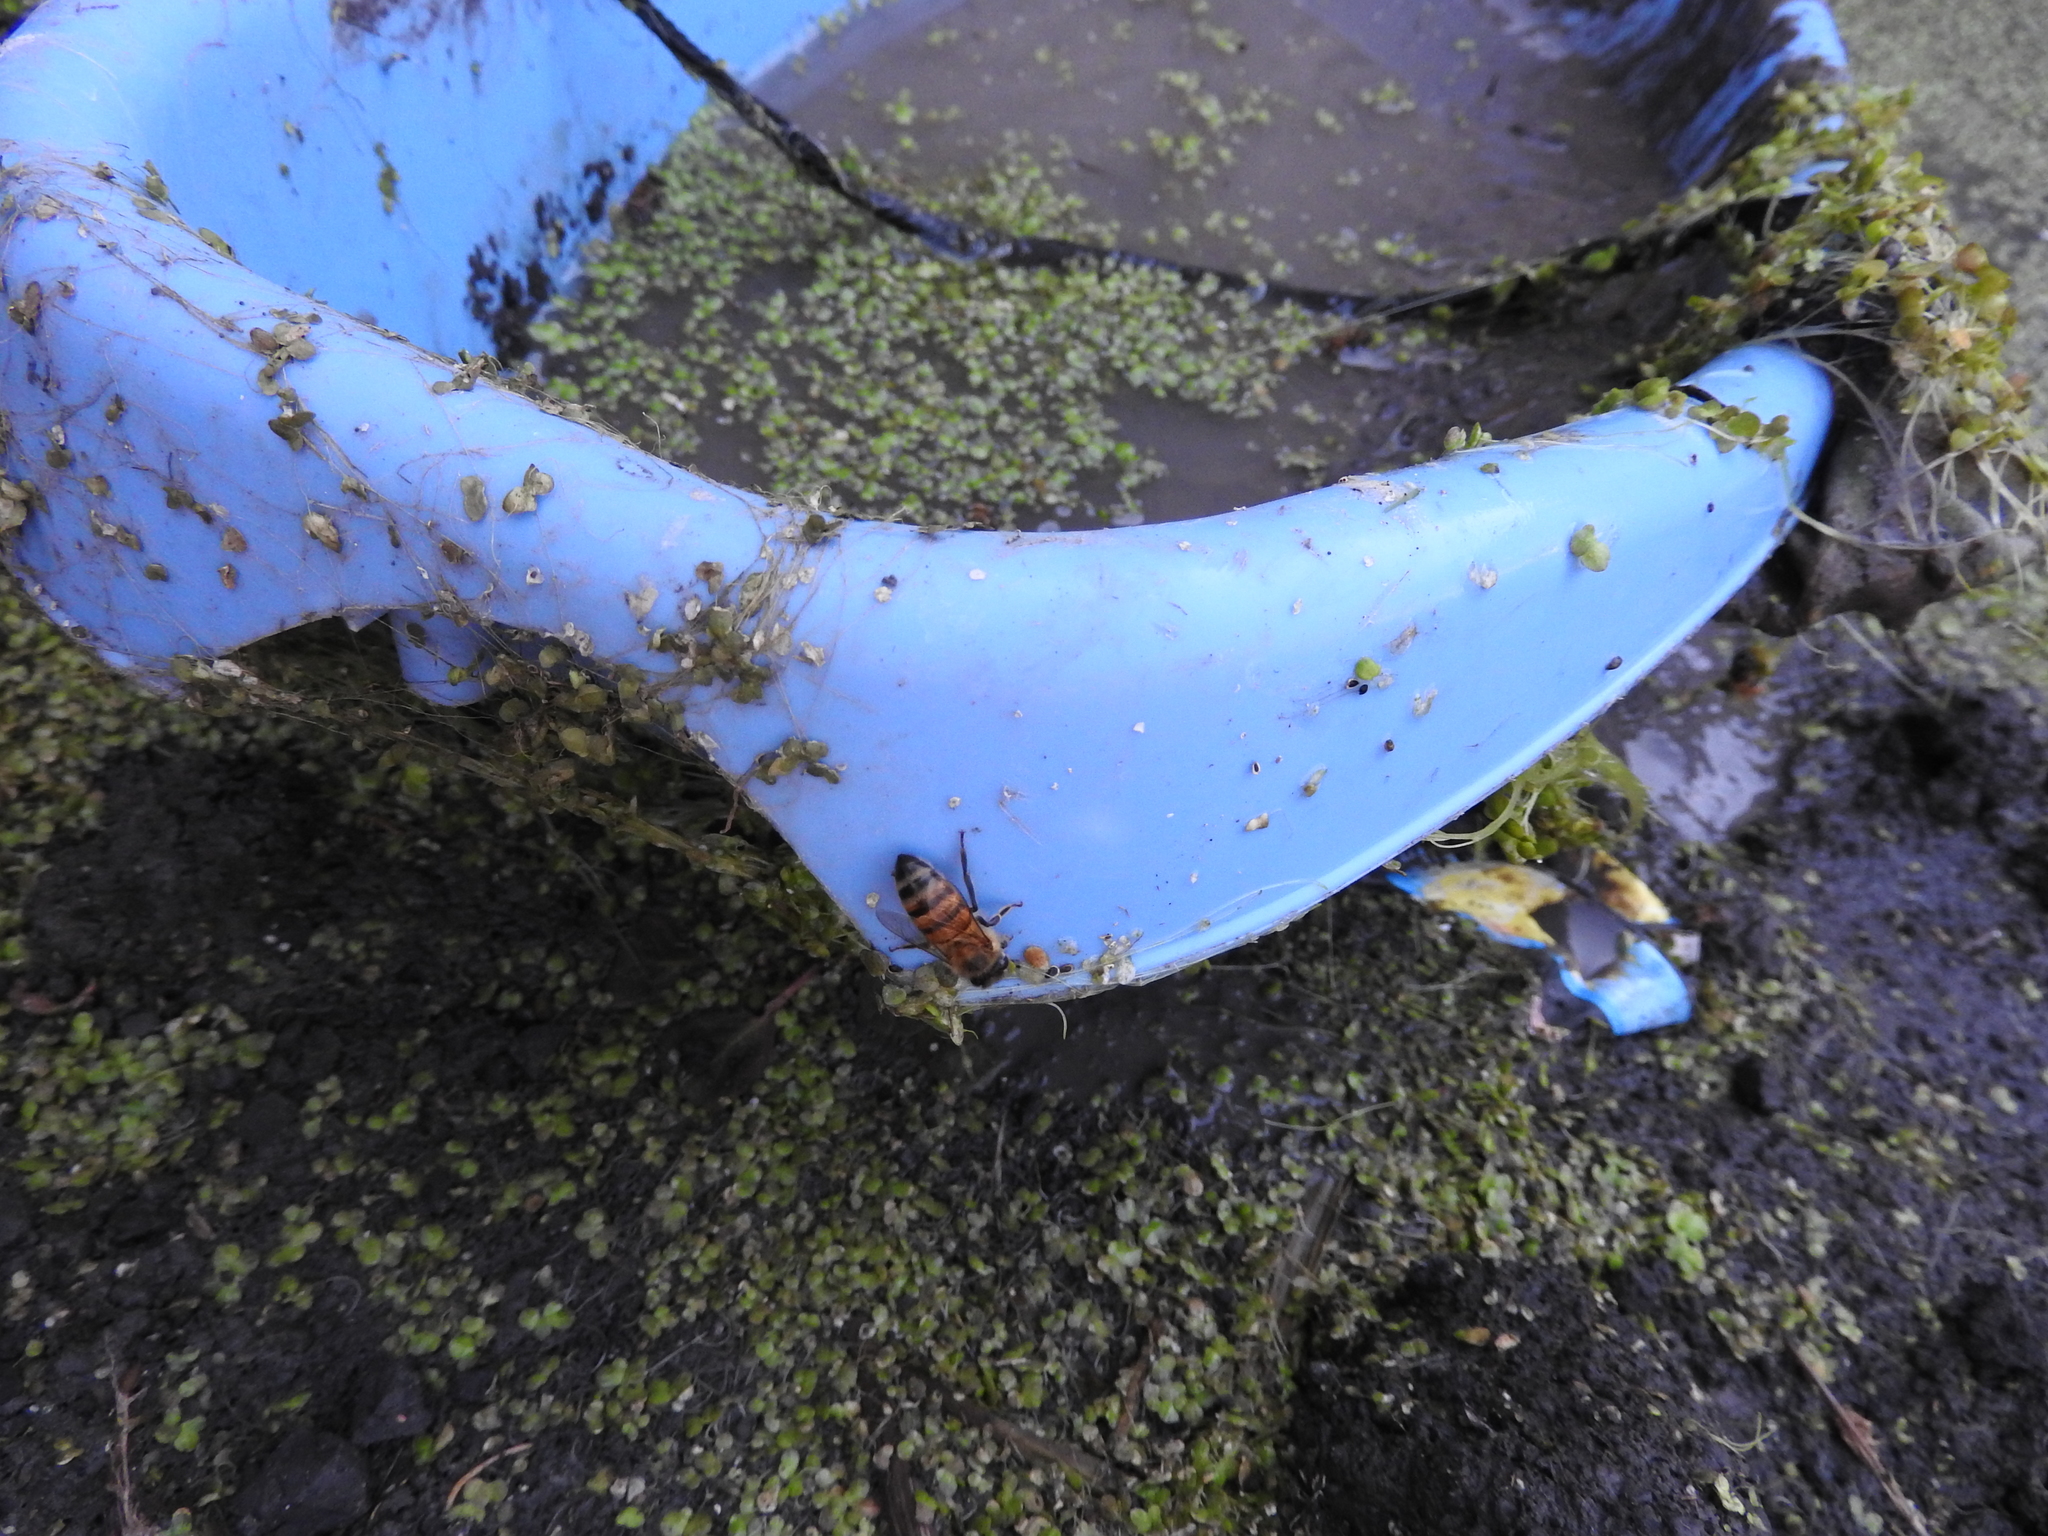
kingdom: Animalia
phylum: Arthropoda
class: Insecta
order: Hymenoptera
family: Apidae
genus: Apis
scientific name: Apis mellifera
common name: Honey bee
